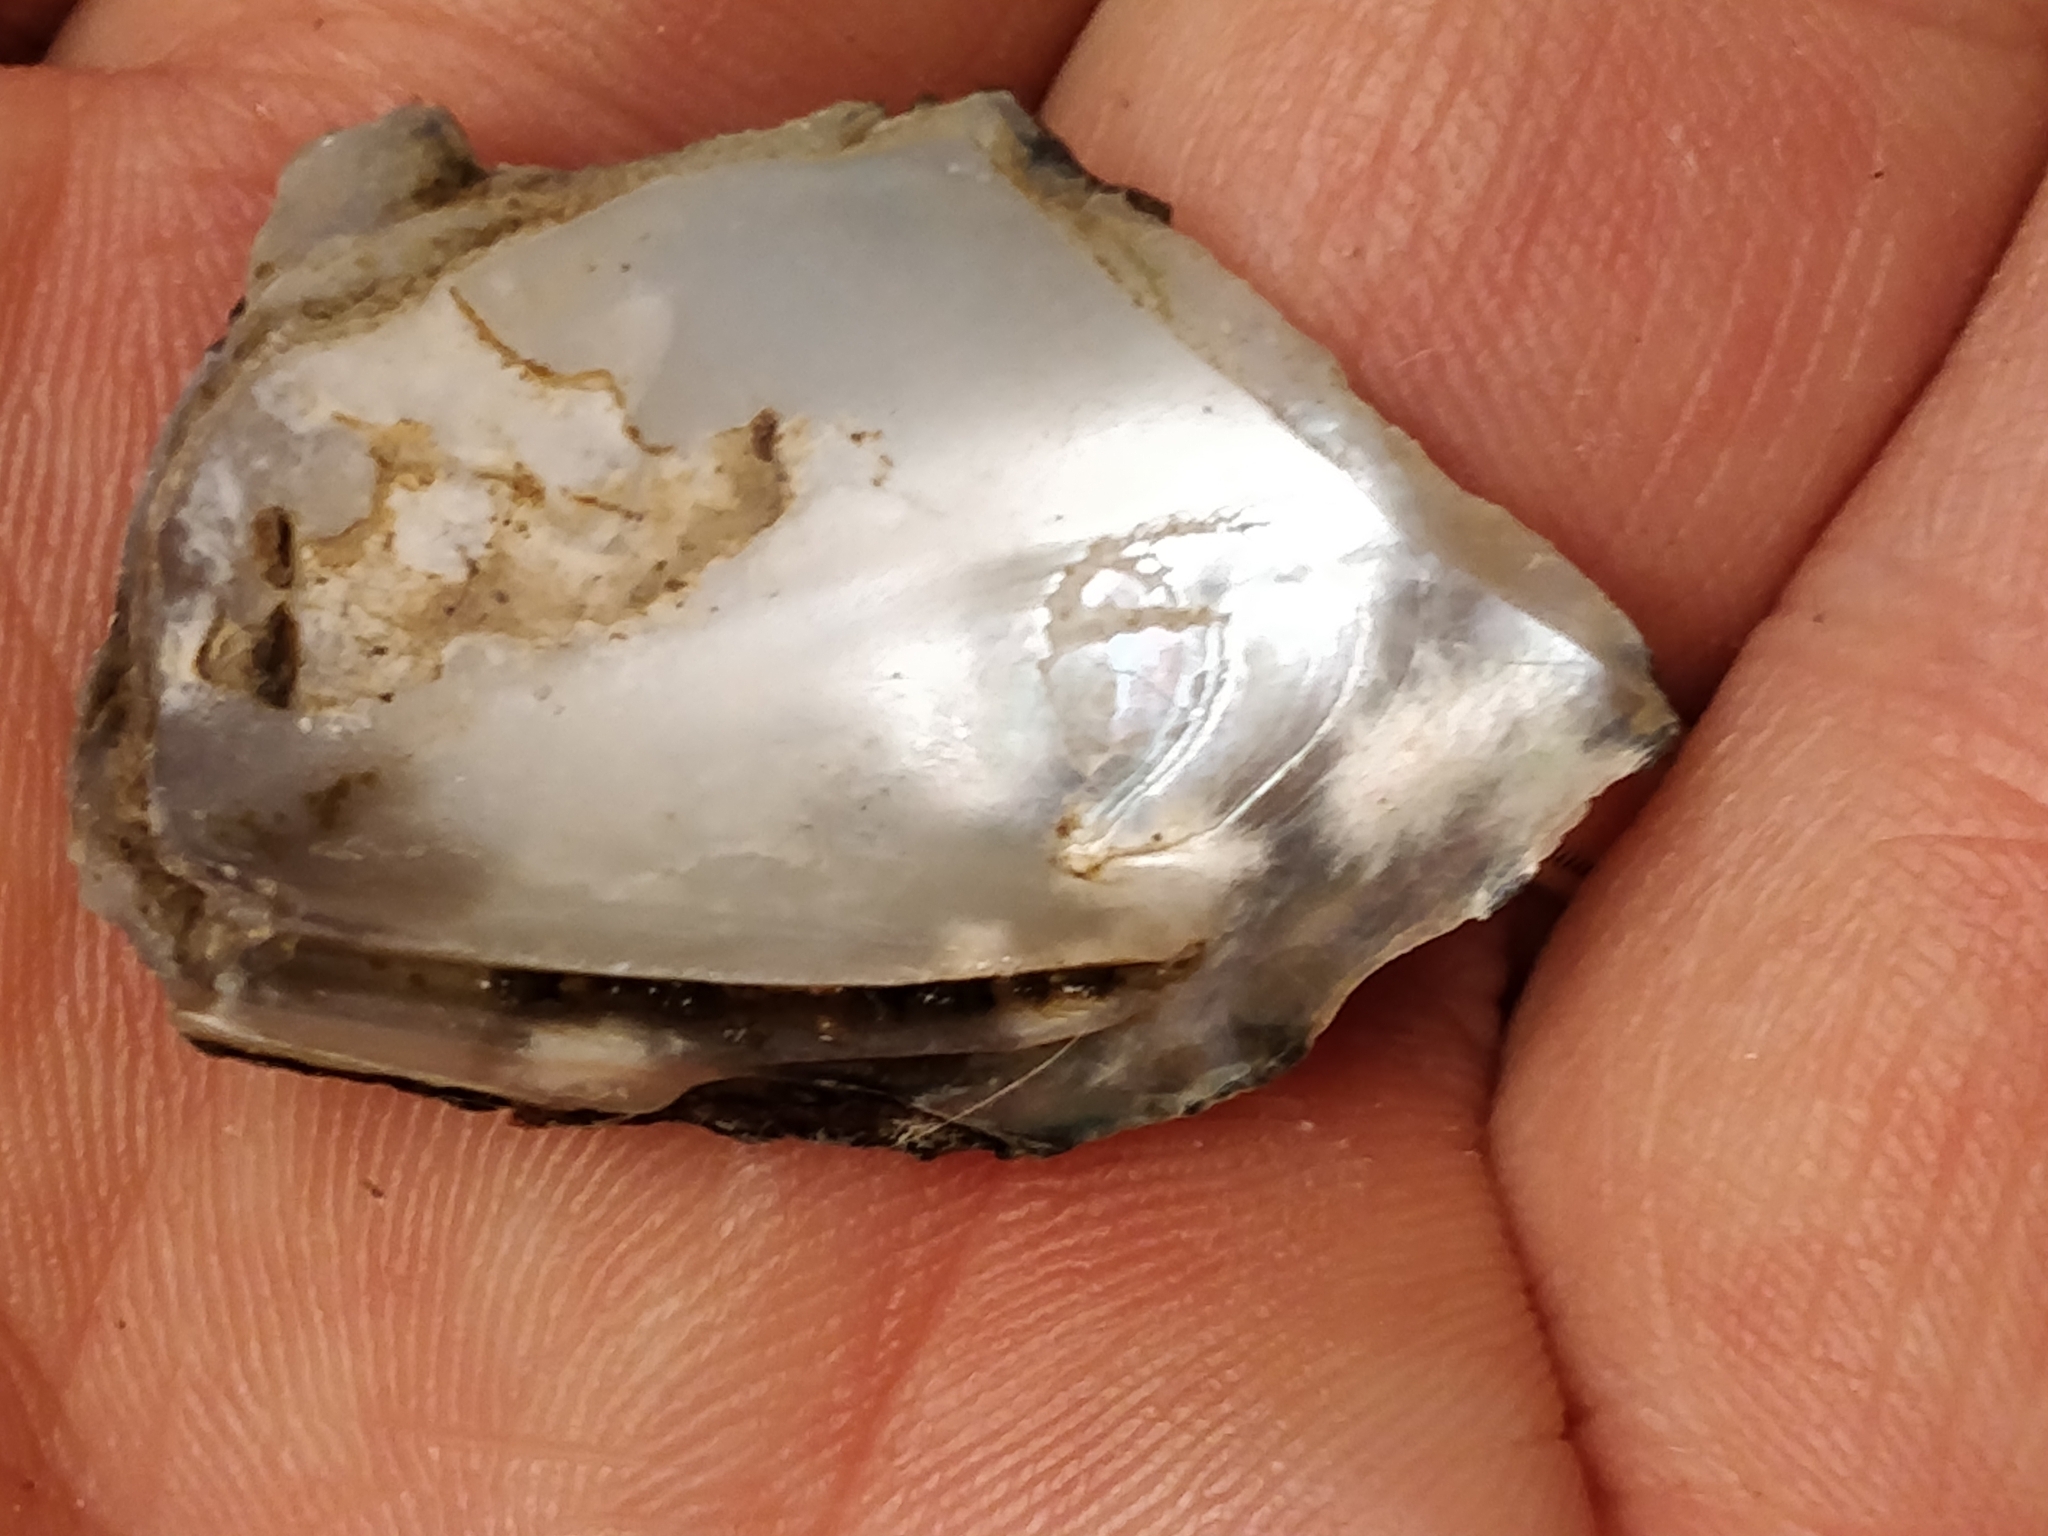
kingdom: Animalia
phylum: Mollusca
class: Bivalvia
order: Unionida
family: Unionidae
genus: Tritogonia
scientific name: Tritogonia verrucosa
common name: Pistolgrip
